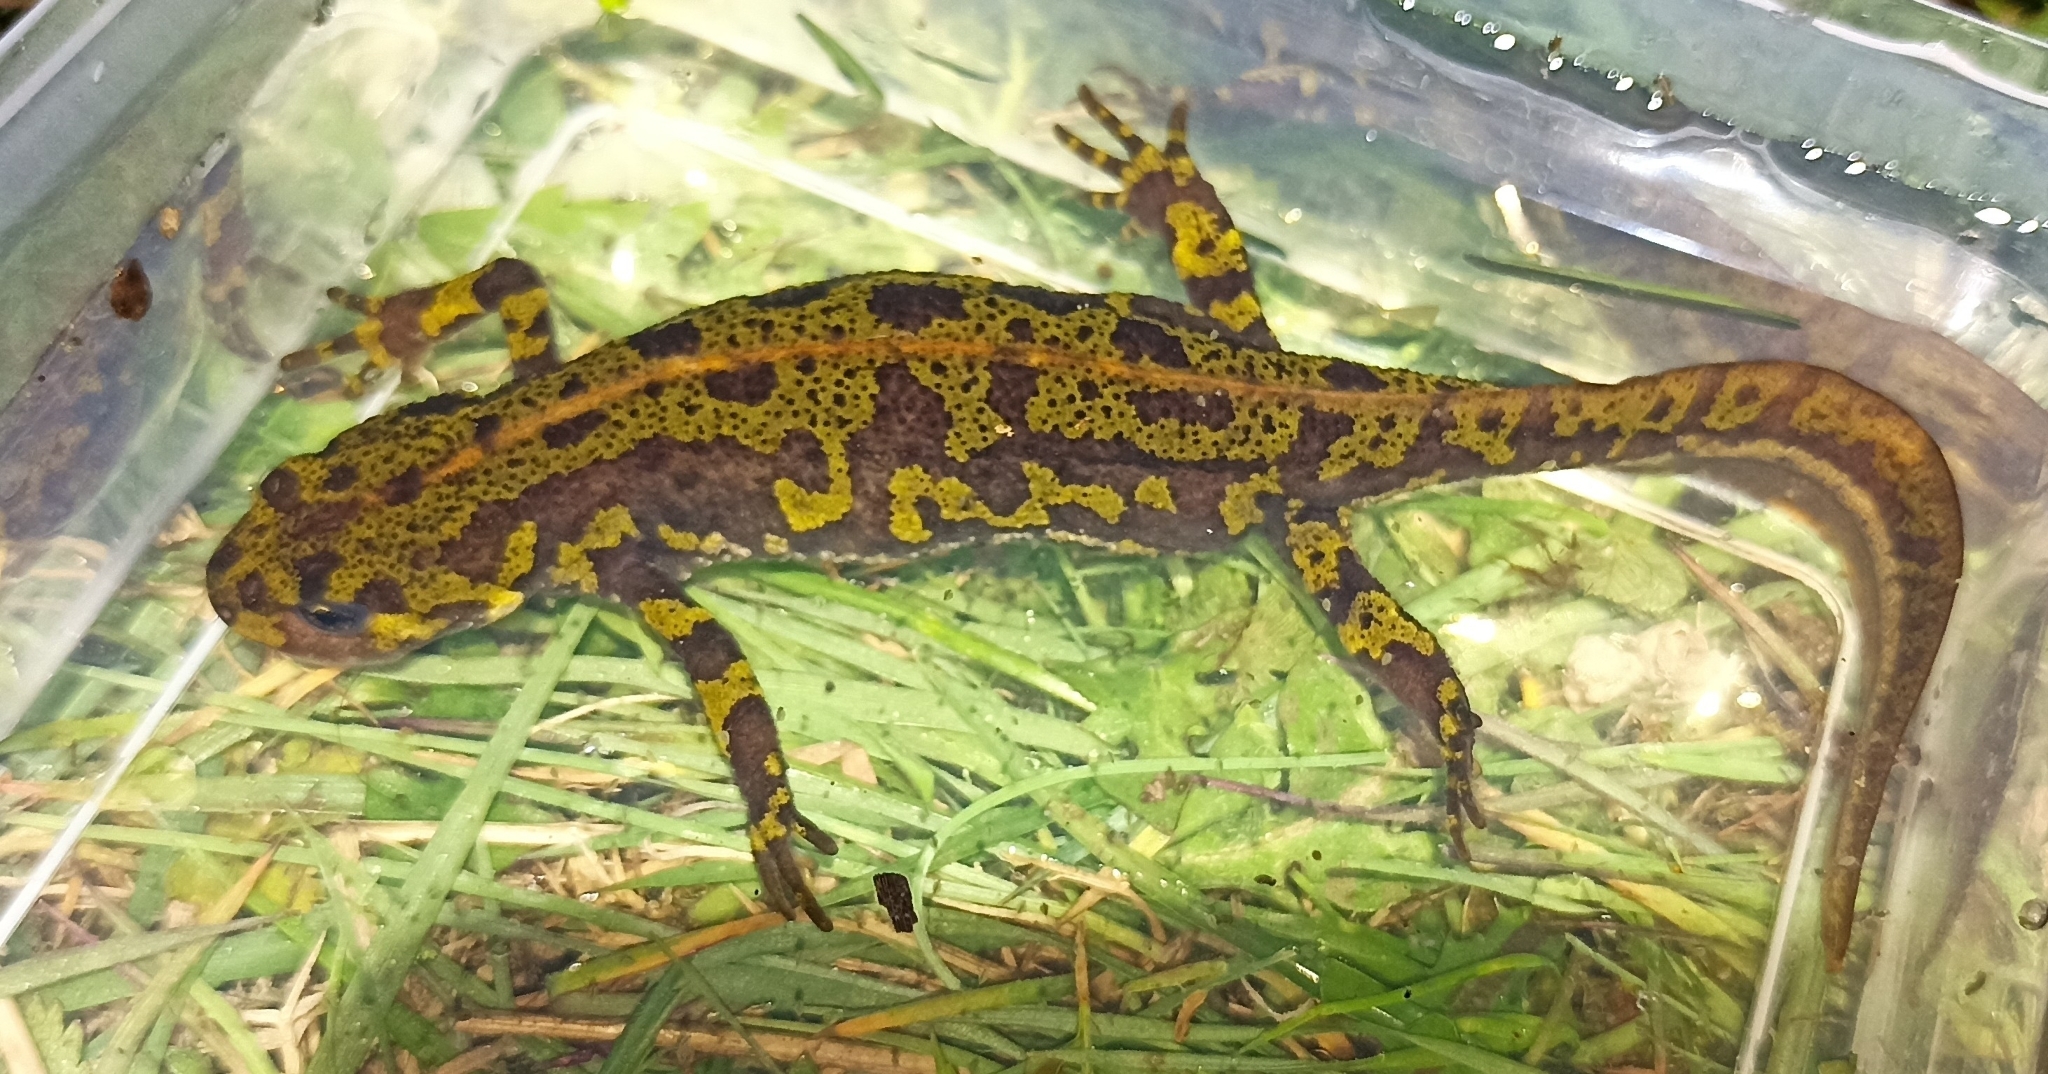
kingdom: Animalia
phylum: Chordata
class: Amphibia
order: Caudata
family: Salamandridae
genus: Triturus
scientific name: Triturus marmoratus
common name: Marbled newt
